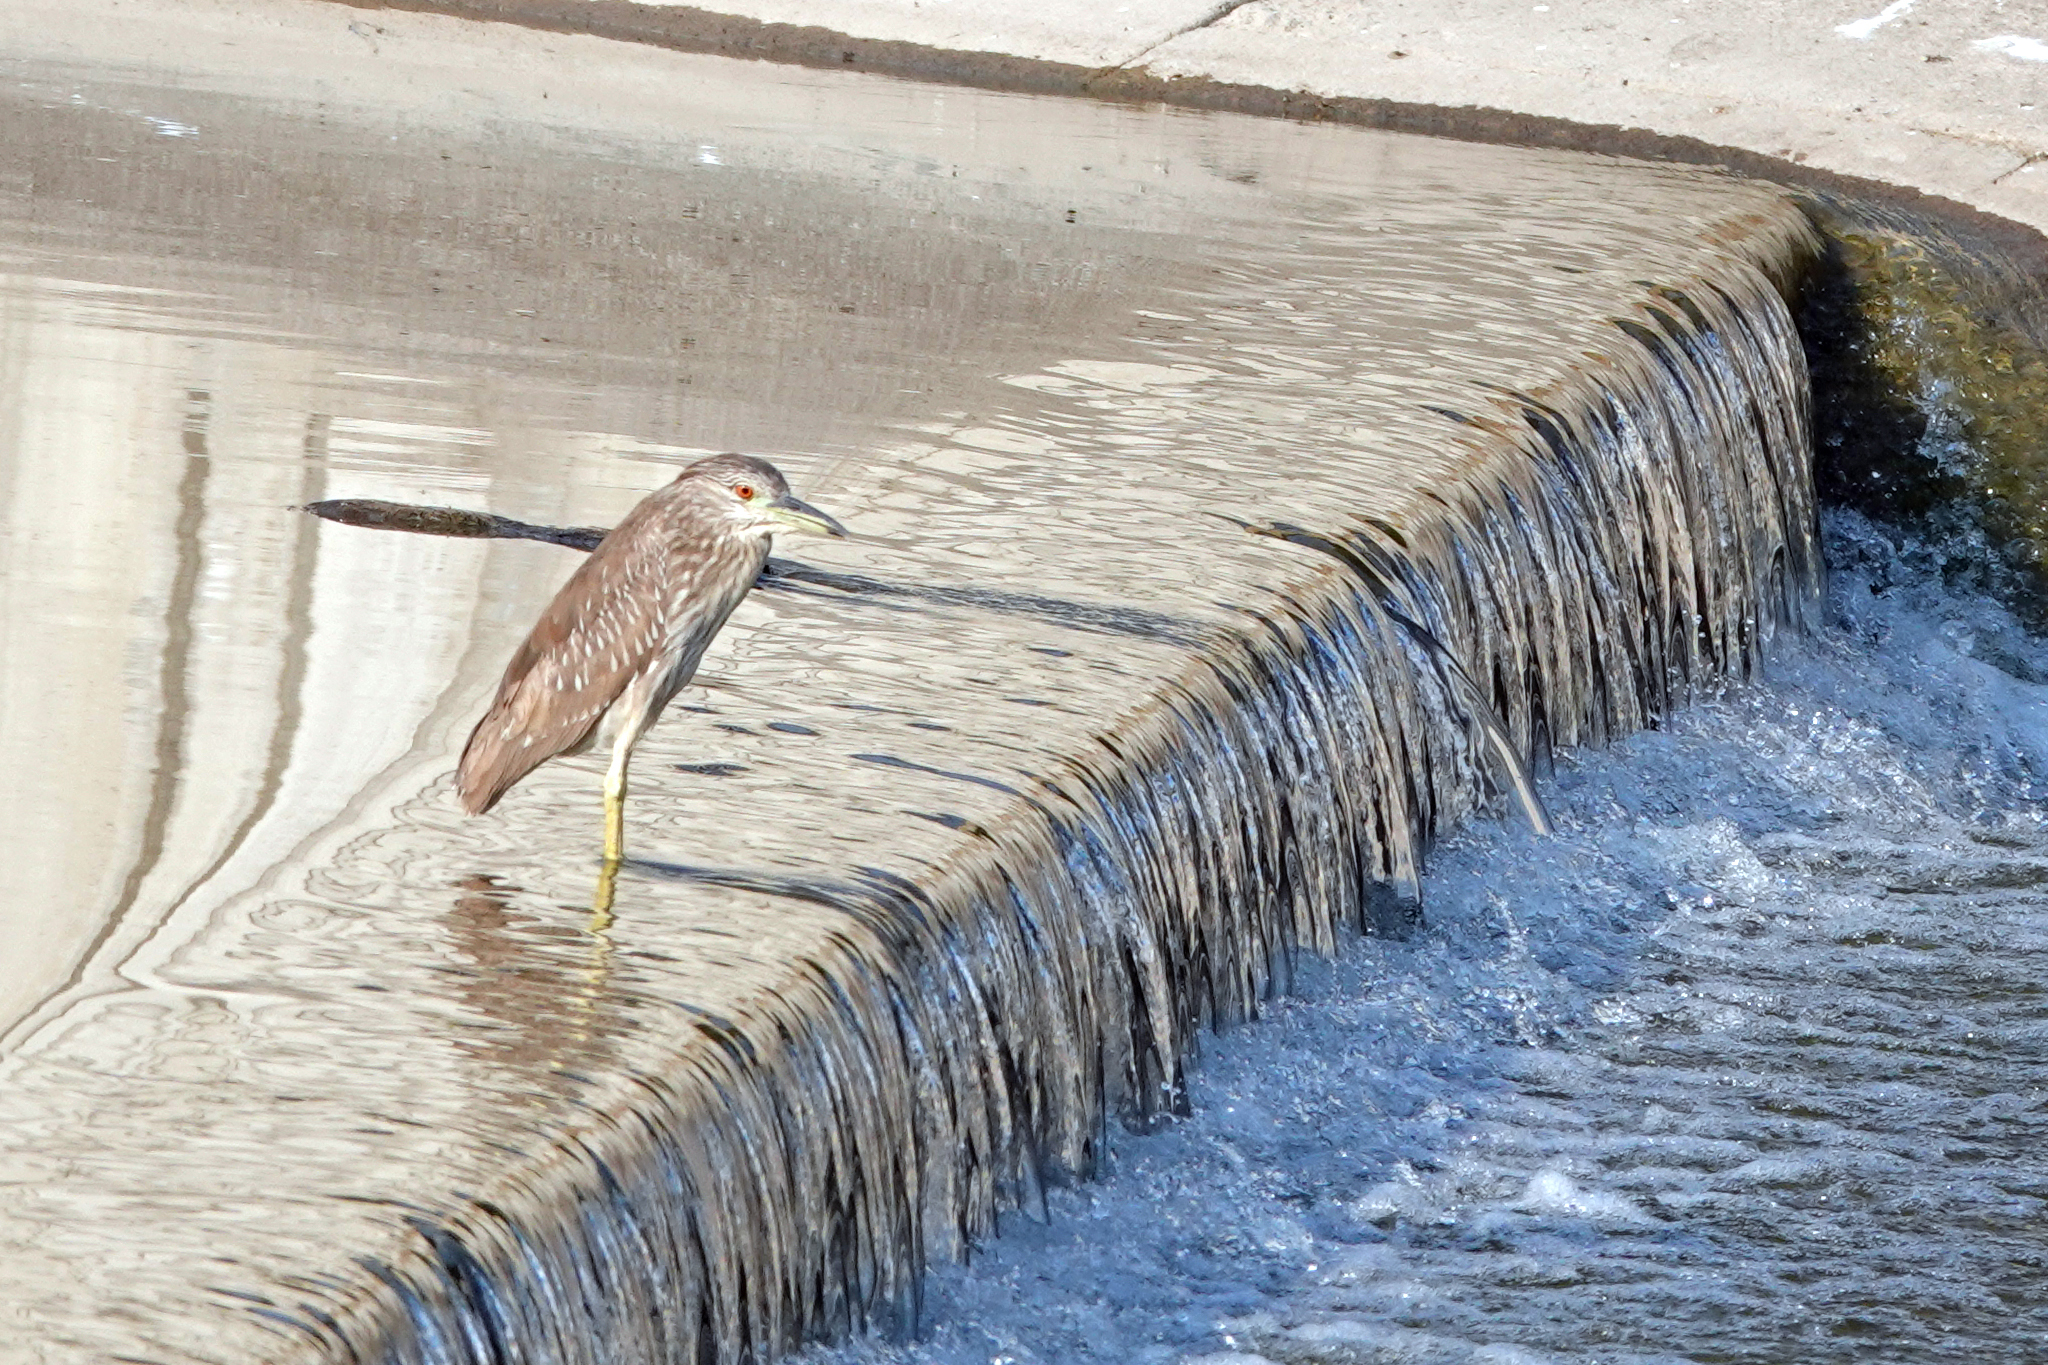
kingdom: Animalia
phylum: Chordata
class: Aves
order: Pelecaniformes
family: Ardeidae
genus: Nycticorax
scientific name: Nycticorax nycticorax
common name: Black-crowned night heron
